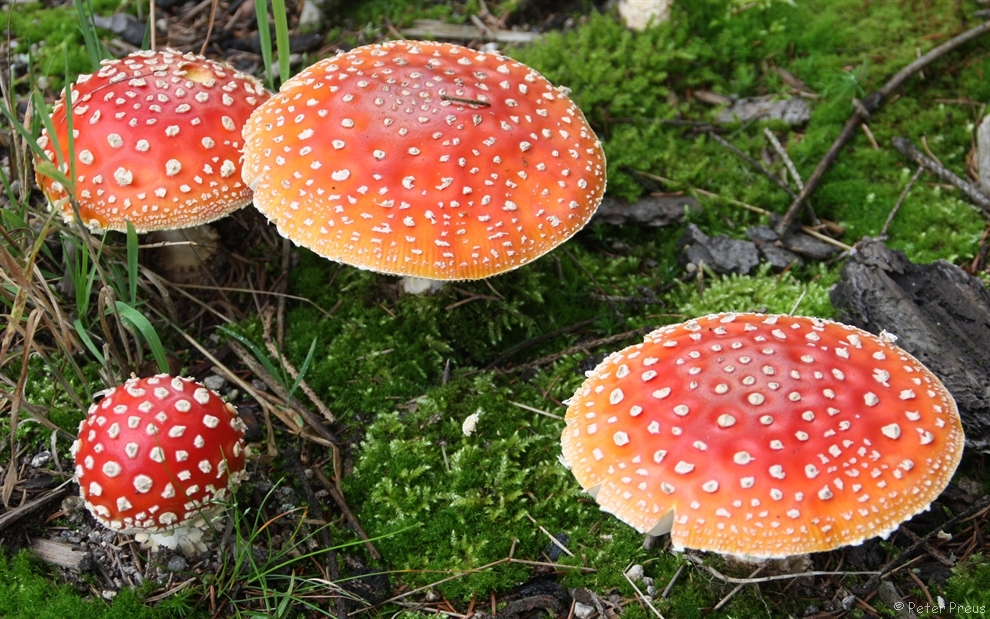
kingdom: Fungi
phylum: Basidiomycota
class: Agaricomycetes
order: Agaricales
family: Amanitaceae
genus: Amanita
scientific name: Amanita muscaria
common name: Fly agaric
